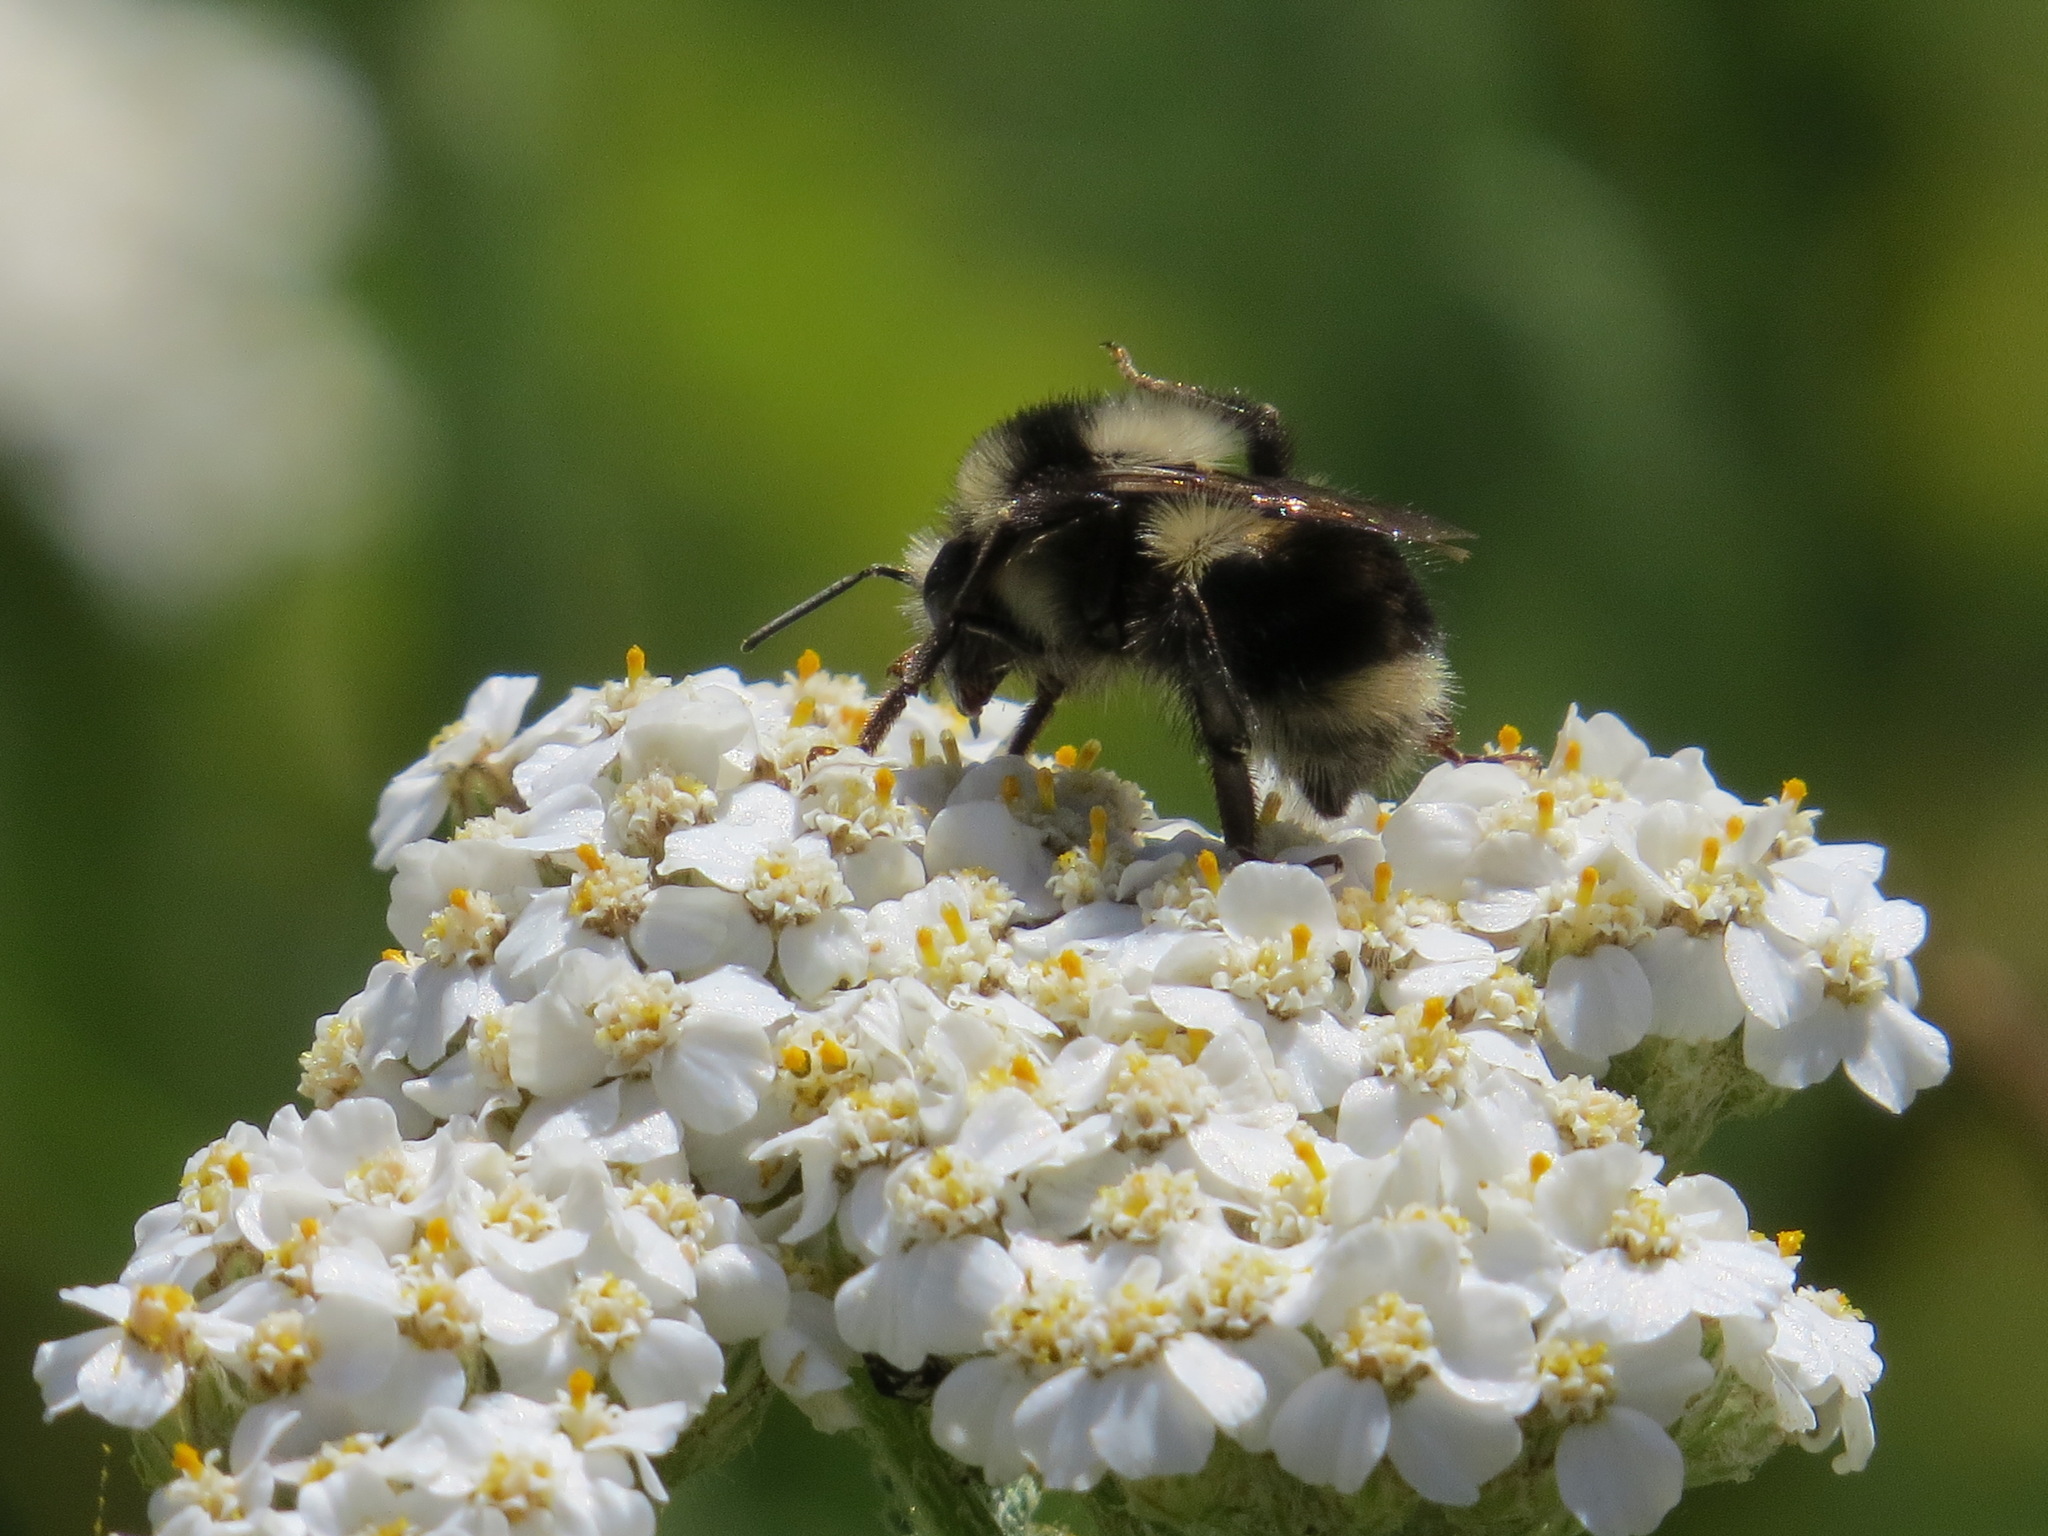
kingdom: Animalia
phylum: Arthropoda
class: Insecta
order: Hymenoptera
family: Apidae
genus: Bombus
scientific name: Bombus melanopygus
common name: Black tail bumble bee
